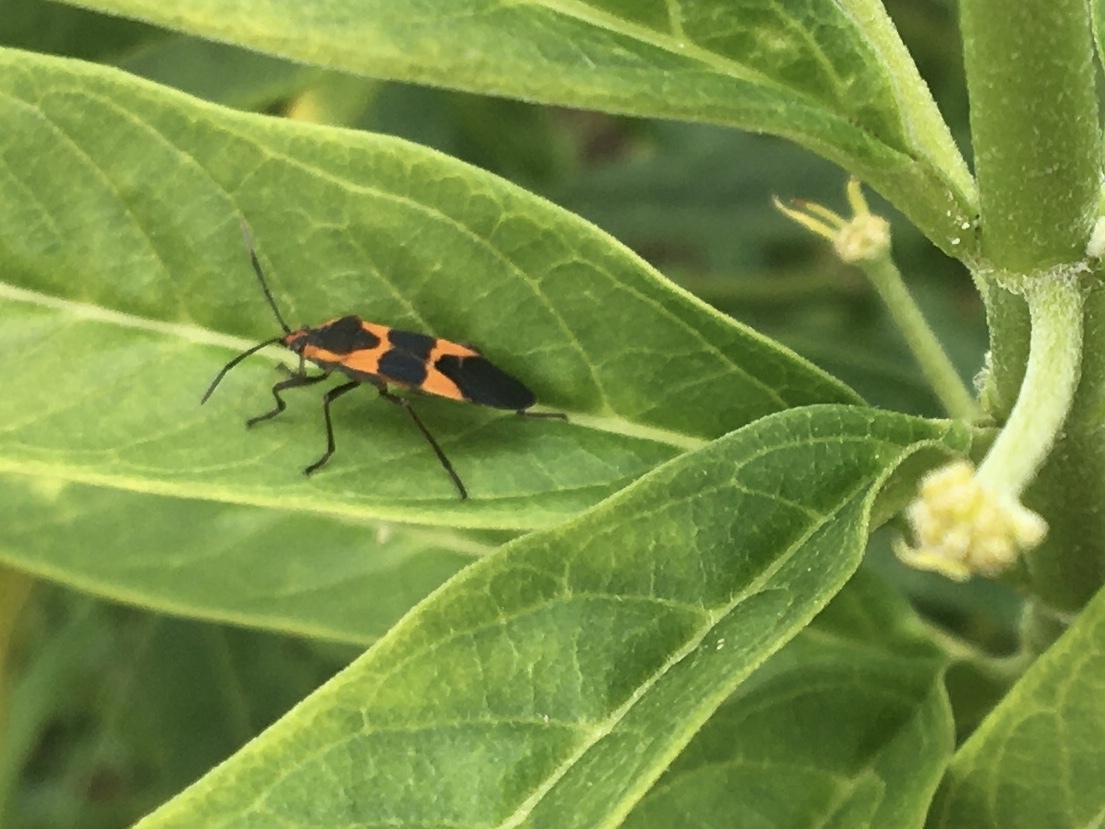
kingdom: Animalia
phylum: Arthropoda
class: Insecta
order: Hemiptera
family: Lygaeidae
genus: Oncopeltus
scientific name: Oncopeltus fasciatus
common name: Large milkweed bug
